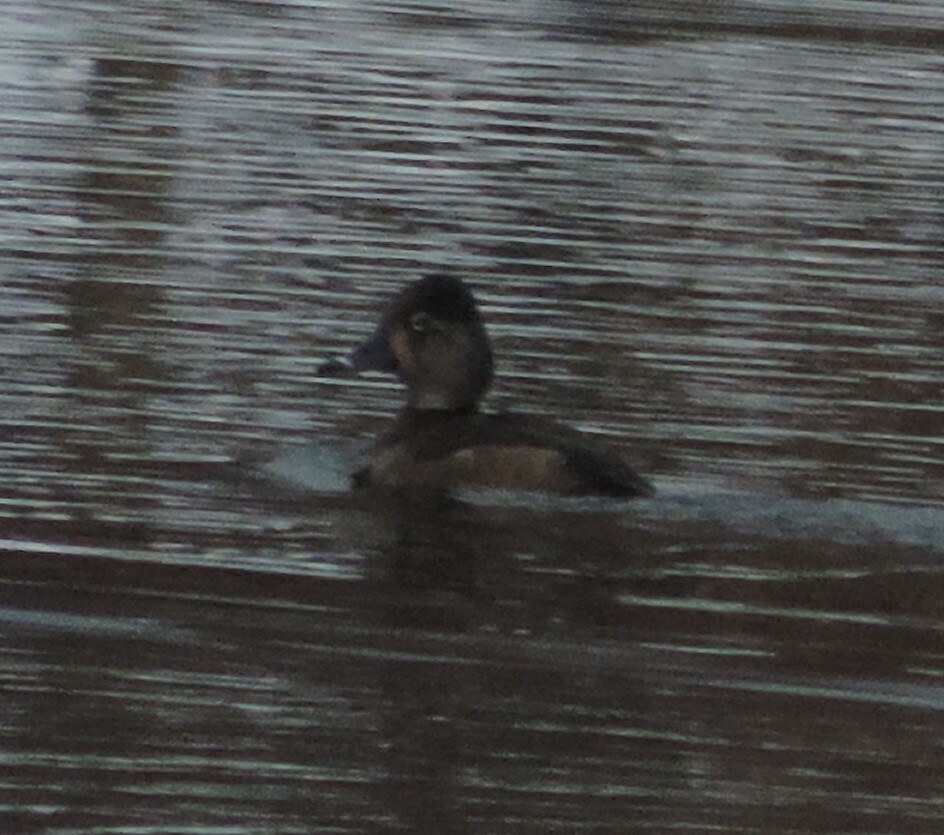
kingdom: Animalia
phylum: Chordata
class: Aves
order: Anseriformes
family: Anatidae
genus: Aythya
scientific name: Aythya collaris
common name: Ring-necked duck
